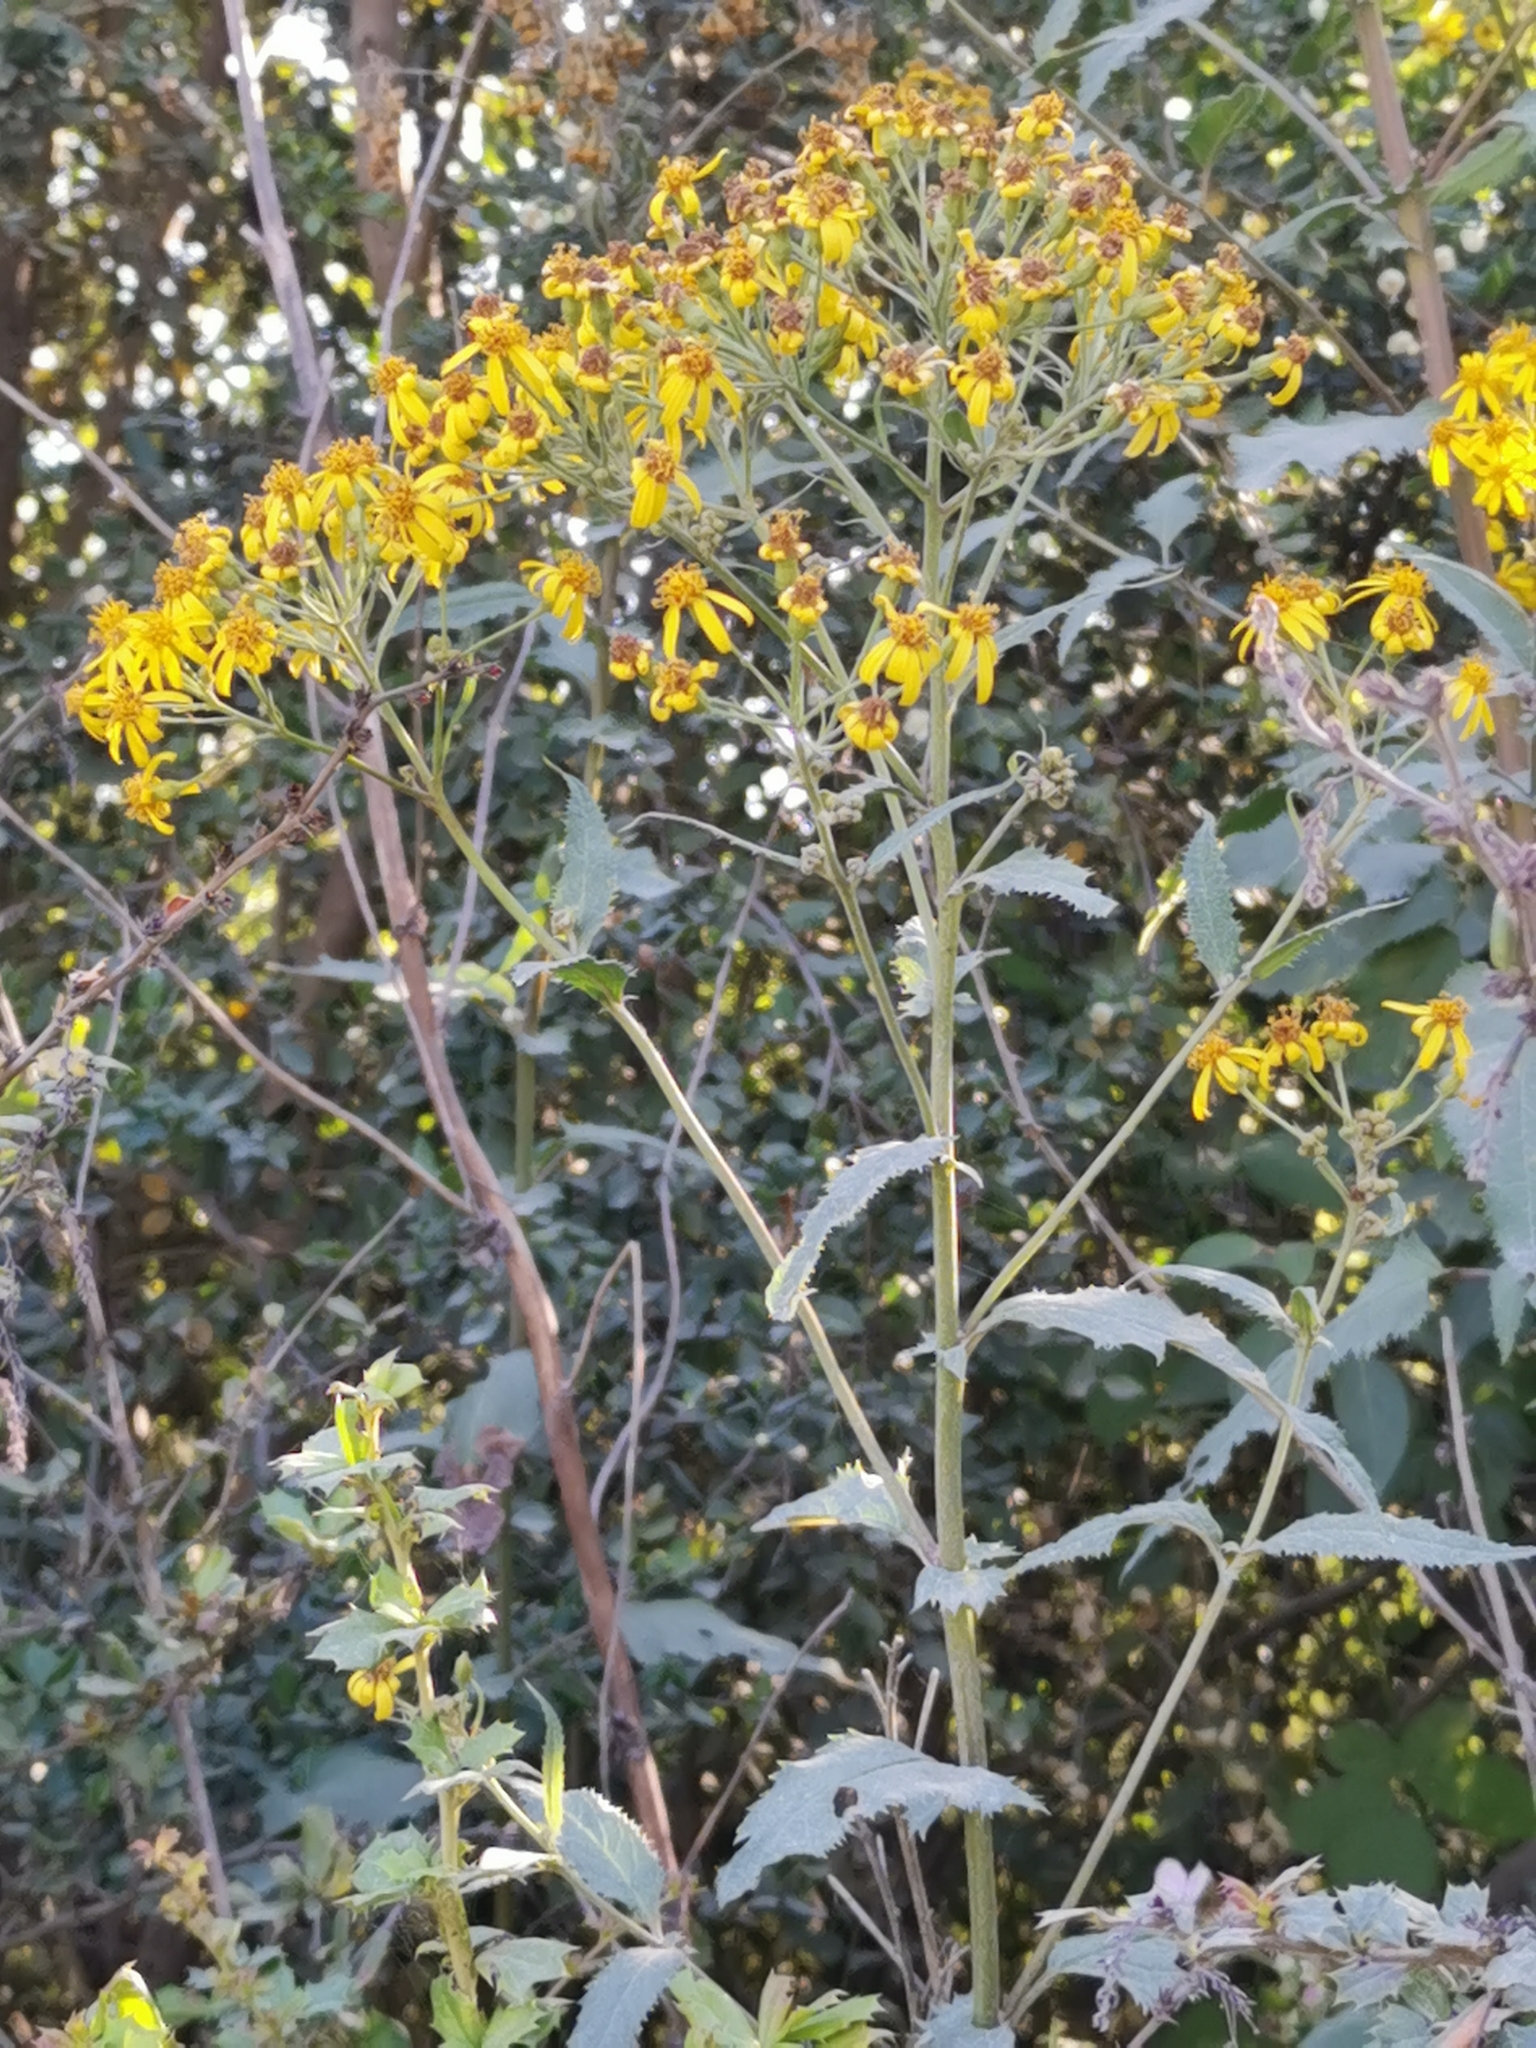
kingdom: Plantae
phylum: Tracheophyta
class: Magnoliopsida
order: Asterales
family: Asteraceae
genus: Senecio
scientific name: Senecio otites
